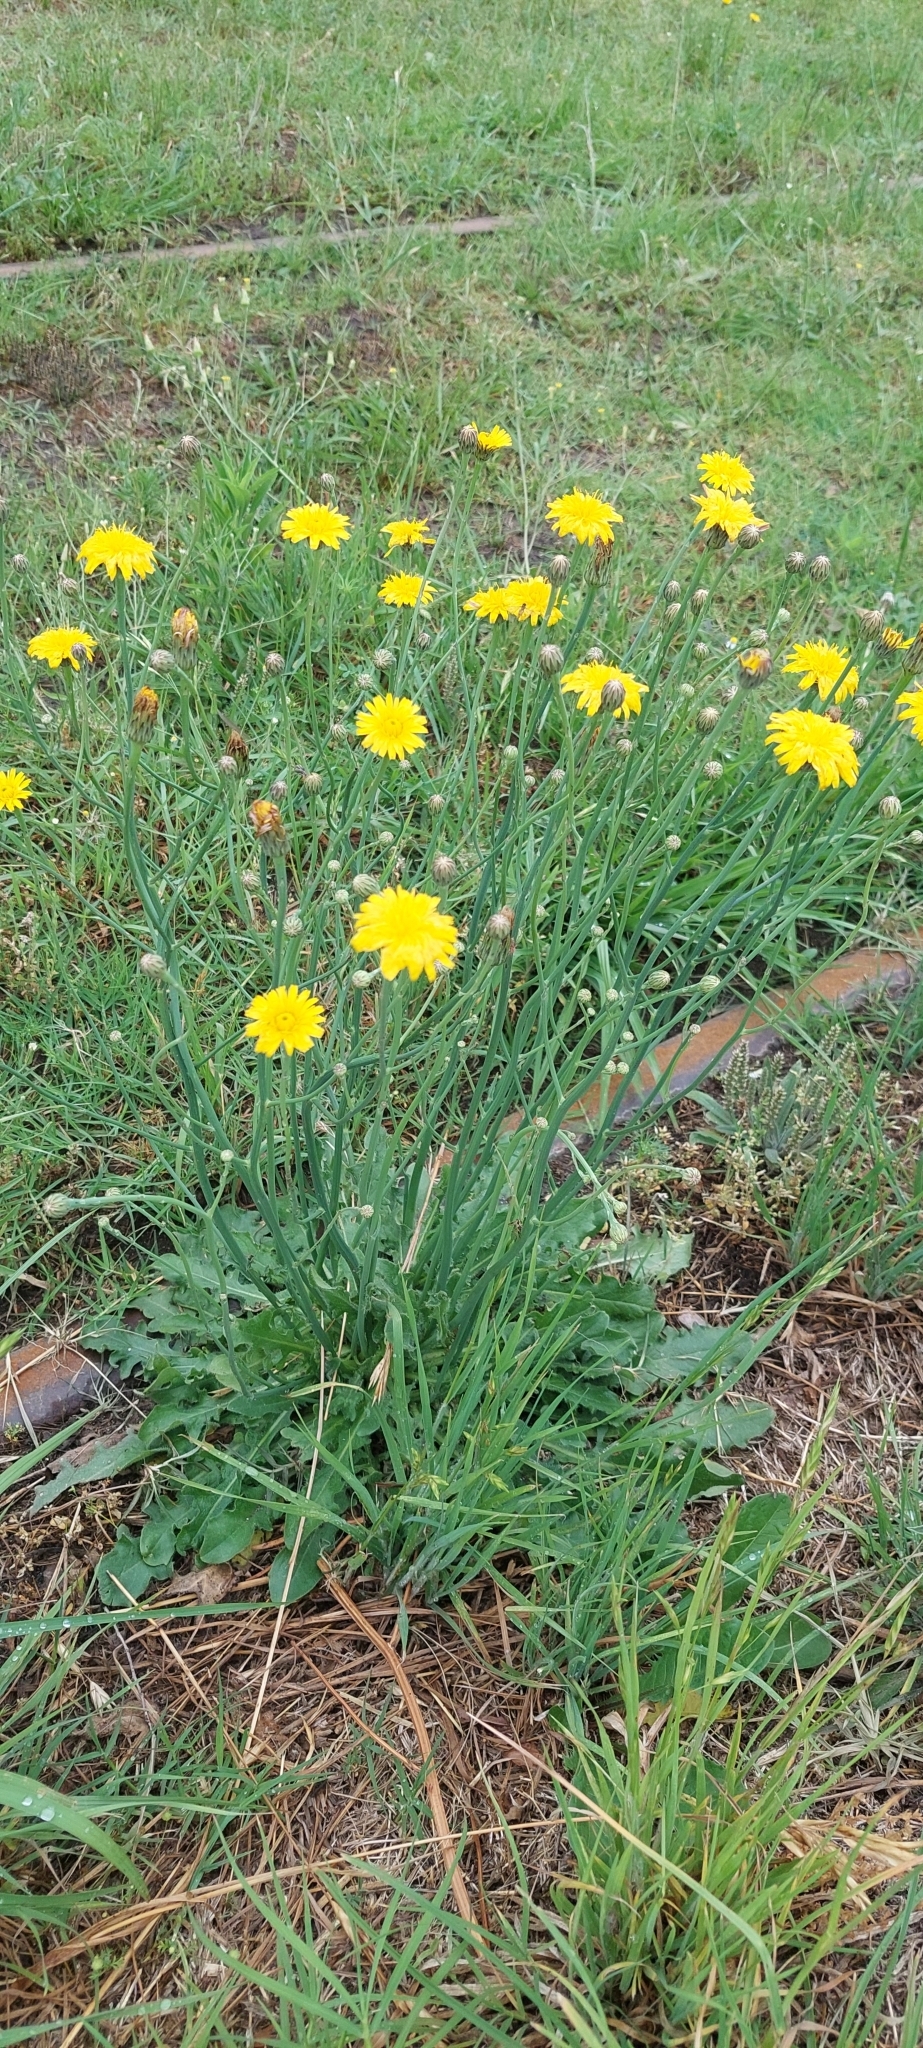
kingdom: Plantae
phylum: Tracheophyta
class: Magnoliopsida
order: Asterales
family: Asteraceae
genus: Hypochaeris
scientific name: Hypochaeris radicata
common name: Flatweed
